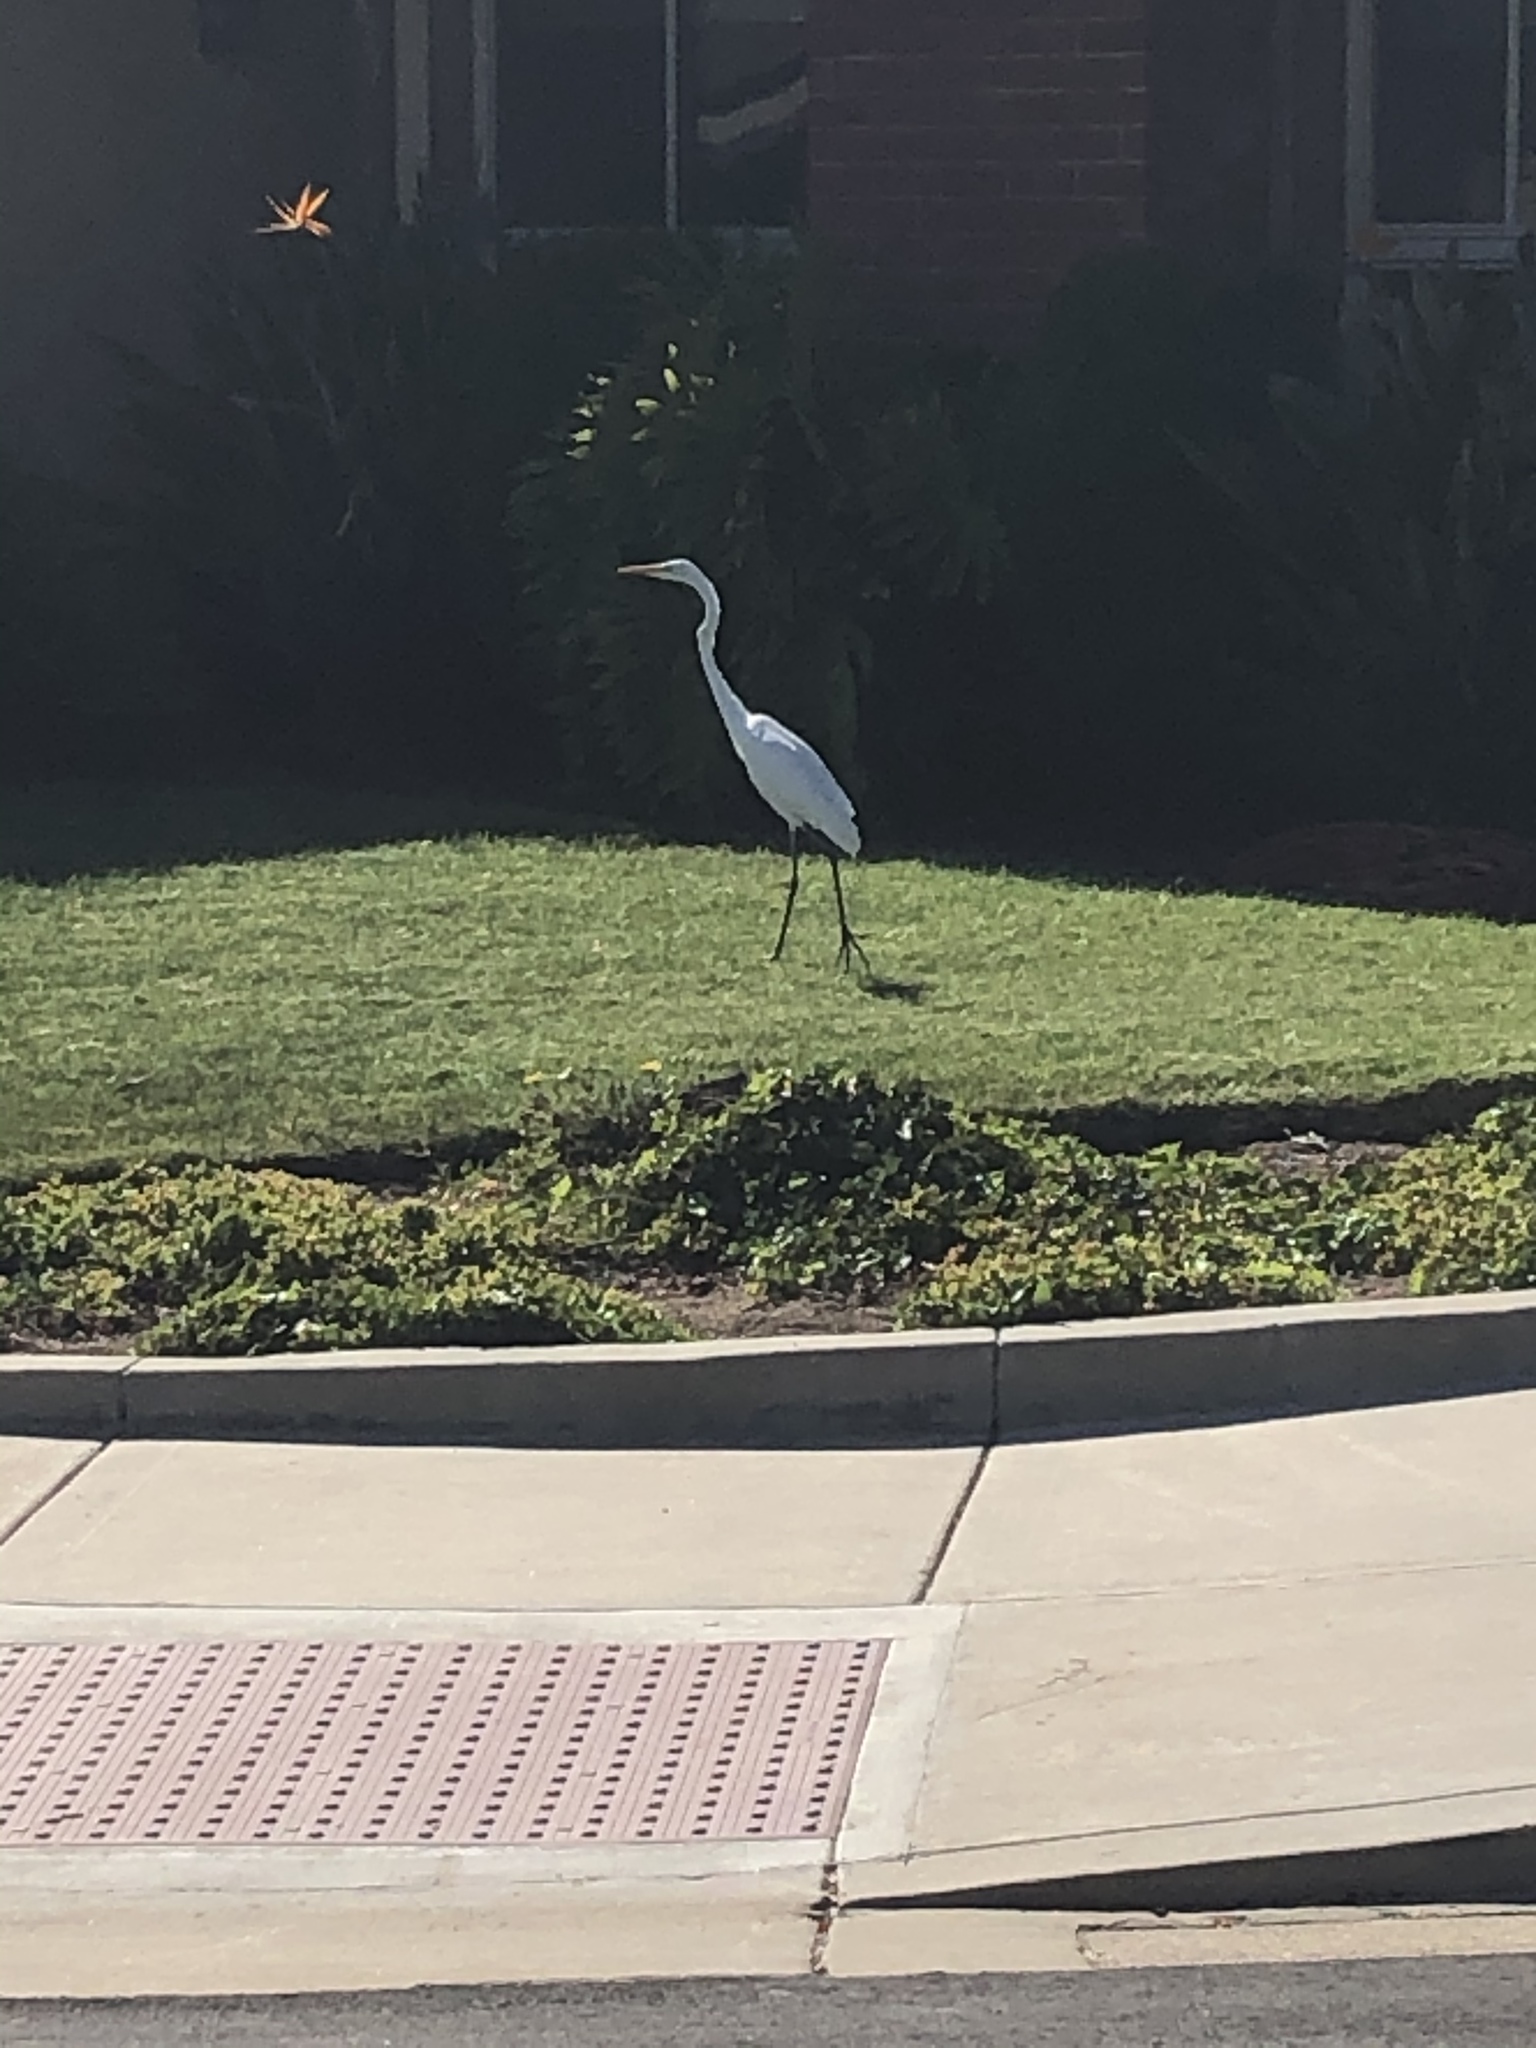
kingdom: Animalia
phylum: Chordata
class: Aves
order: Pelecaniformes
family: Ardeidae
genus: Ardea
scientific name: Ardea alba
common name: Great egret
